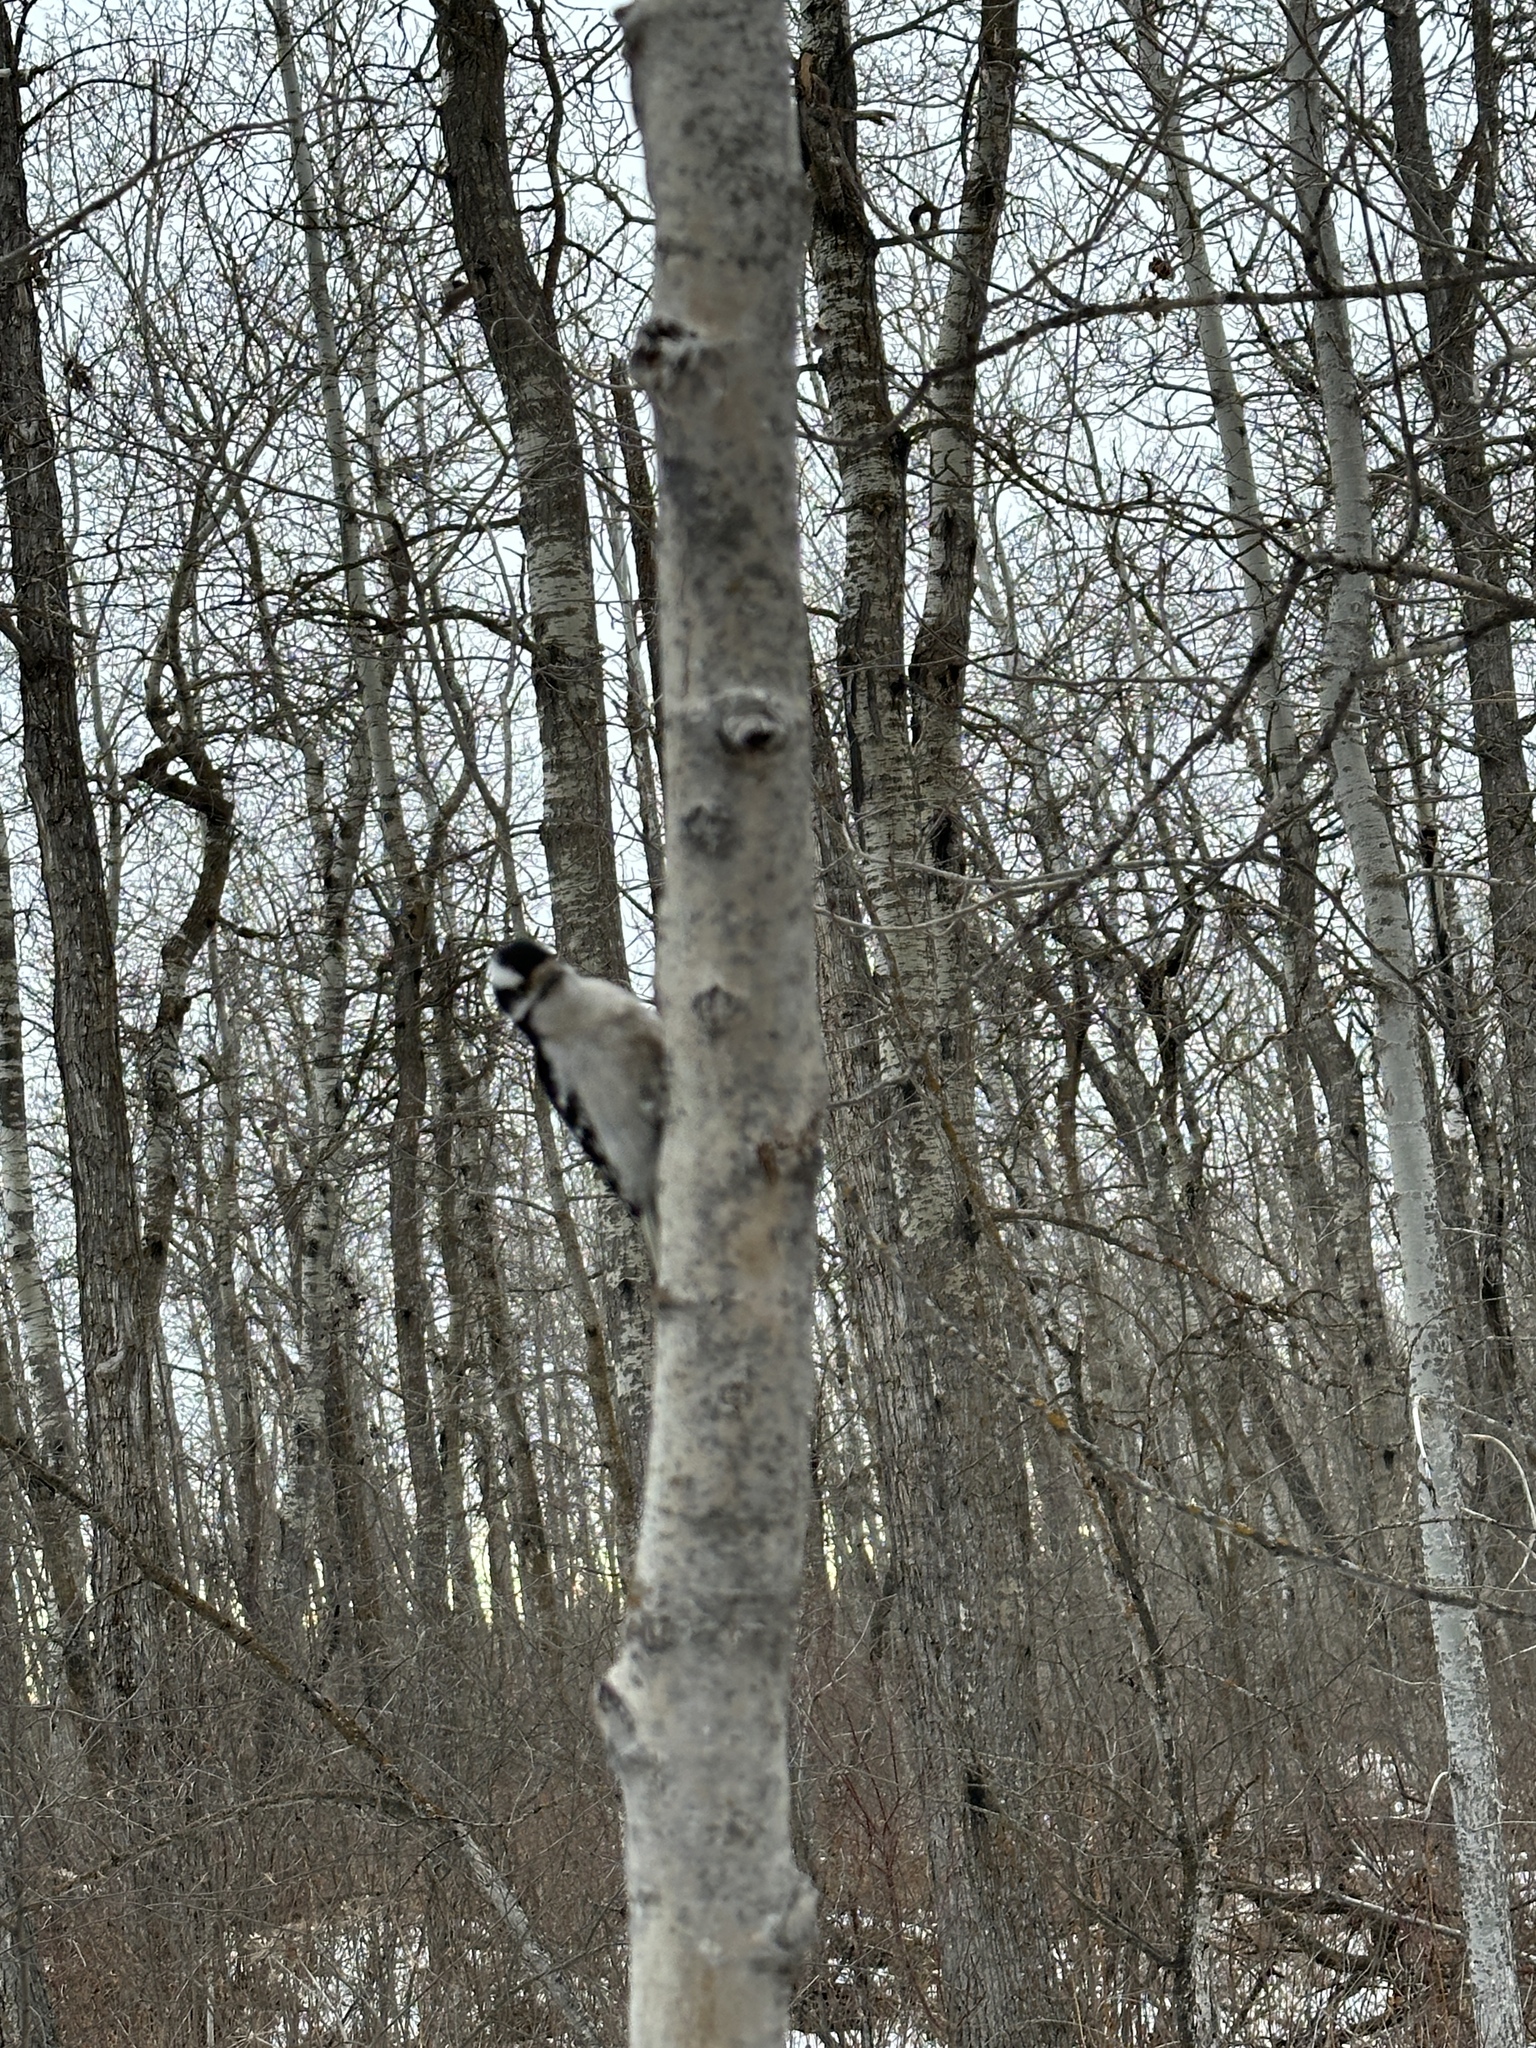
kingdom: Animalia
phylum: Chordata
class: Aves
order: Piciformes
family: Picidae
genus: Dryobates
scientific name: Dryobates pubescens
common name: Downy woodpecker
